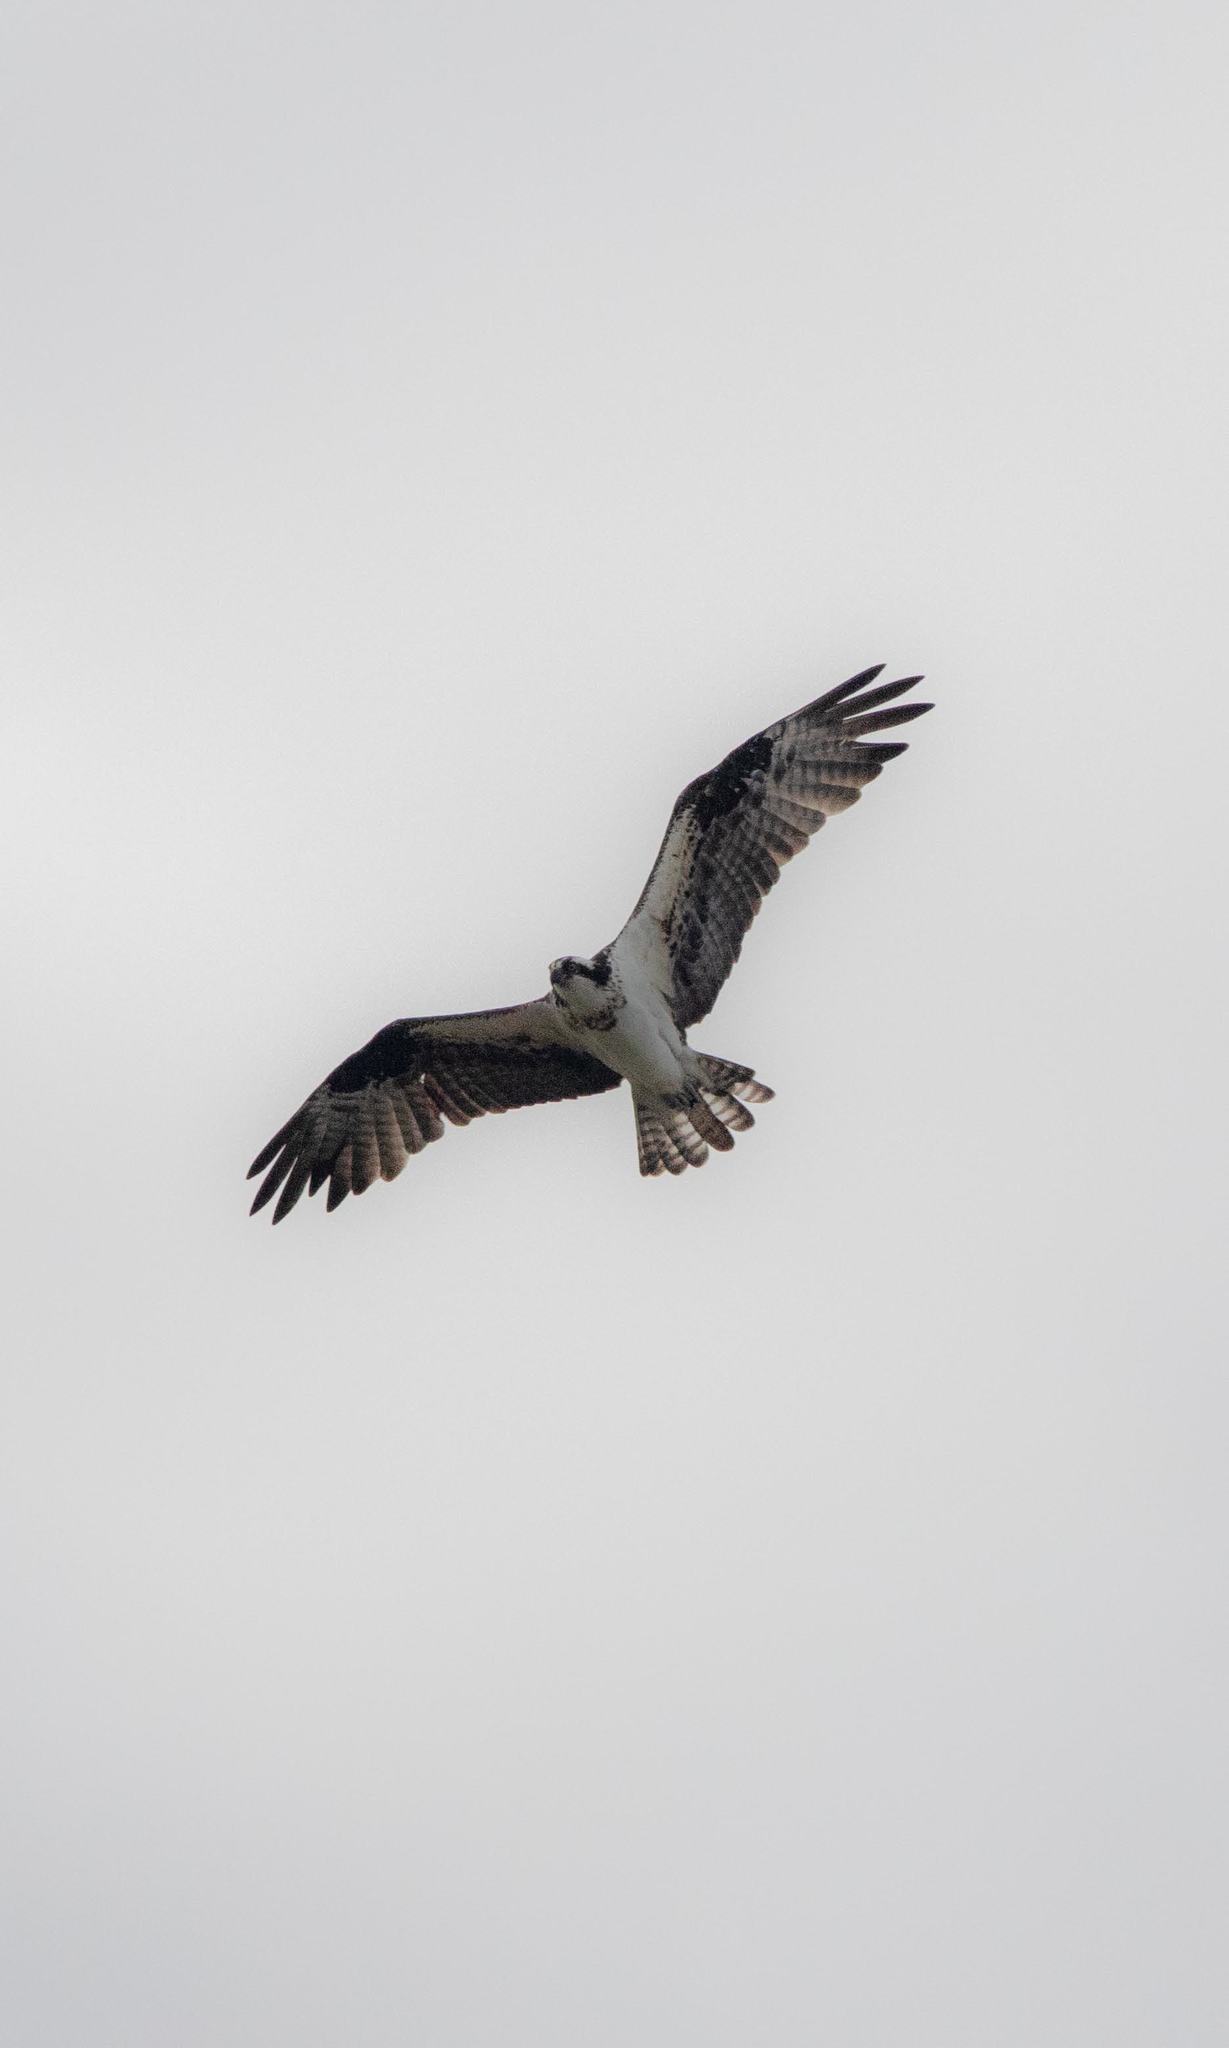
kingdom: Animalia
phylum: Chordata
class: Aves
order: Accipitriformes
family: Pandionidae
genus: Pandion
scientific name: Pandion haliaetus
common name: Osprey
